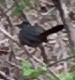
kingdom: Animalia
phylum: Chordata
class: Aves
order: Passeriformes
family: Mimidae
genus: Dumetella
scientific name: Dumetella carolinensis
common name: Gray catbird
